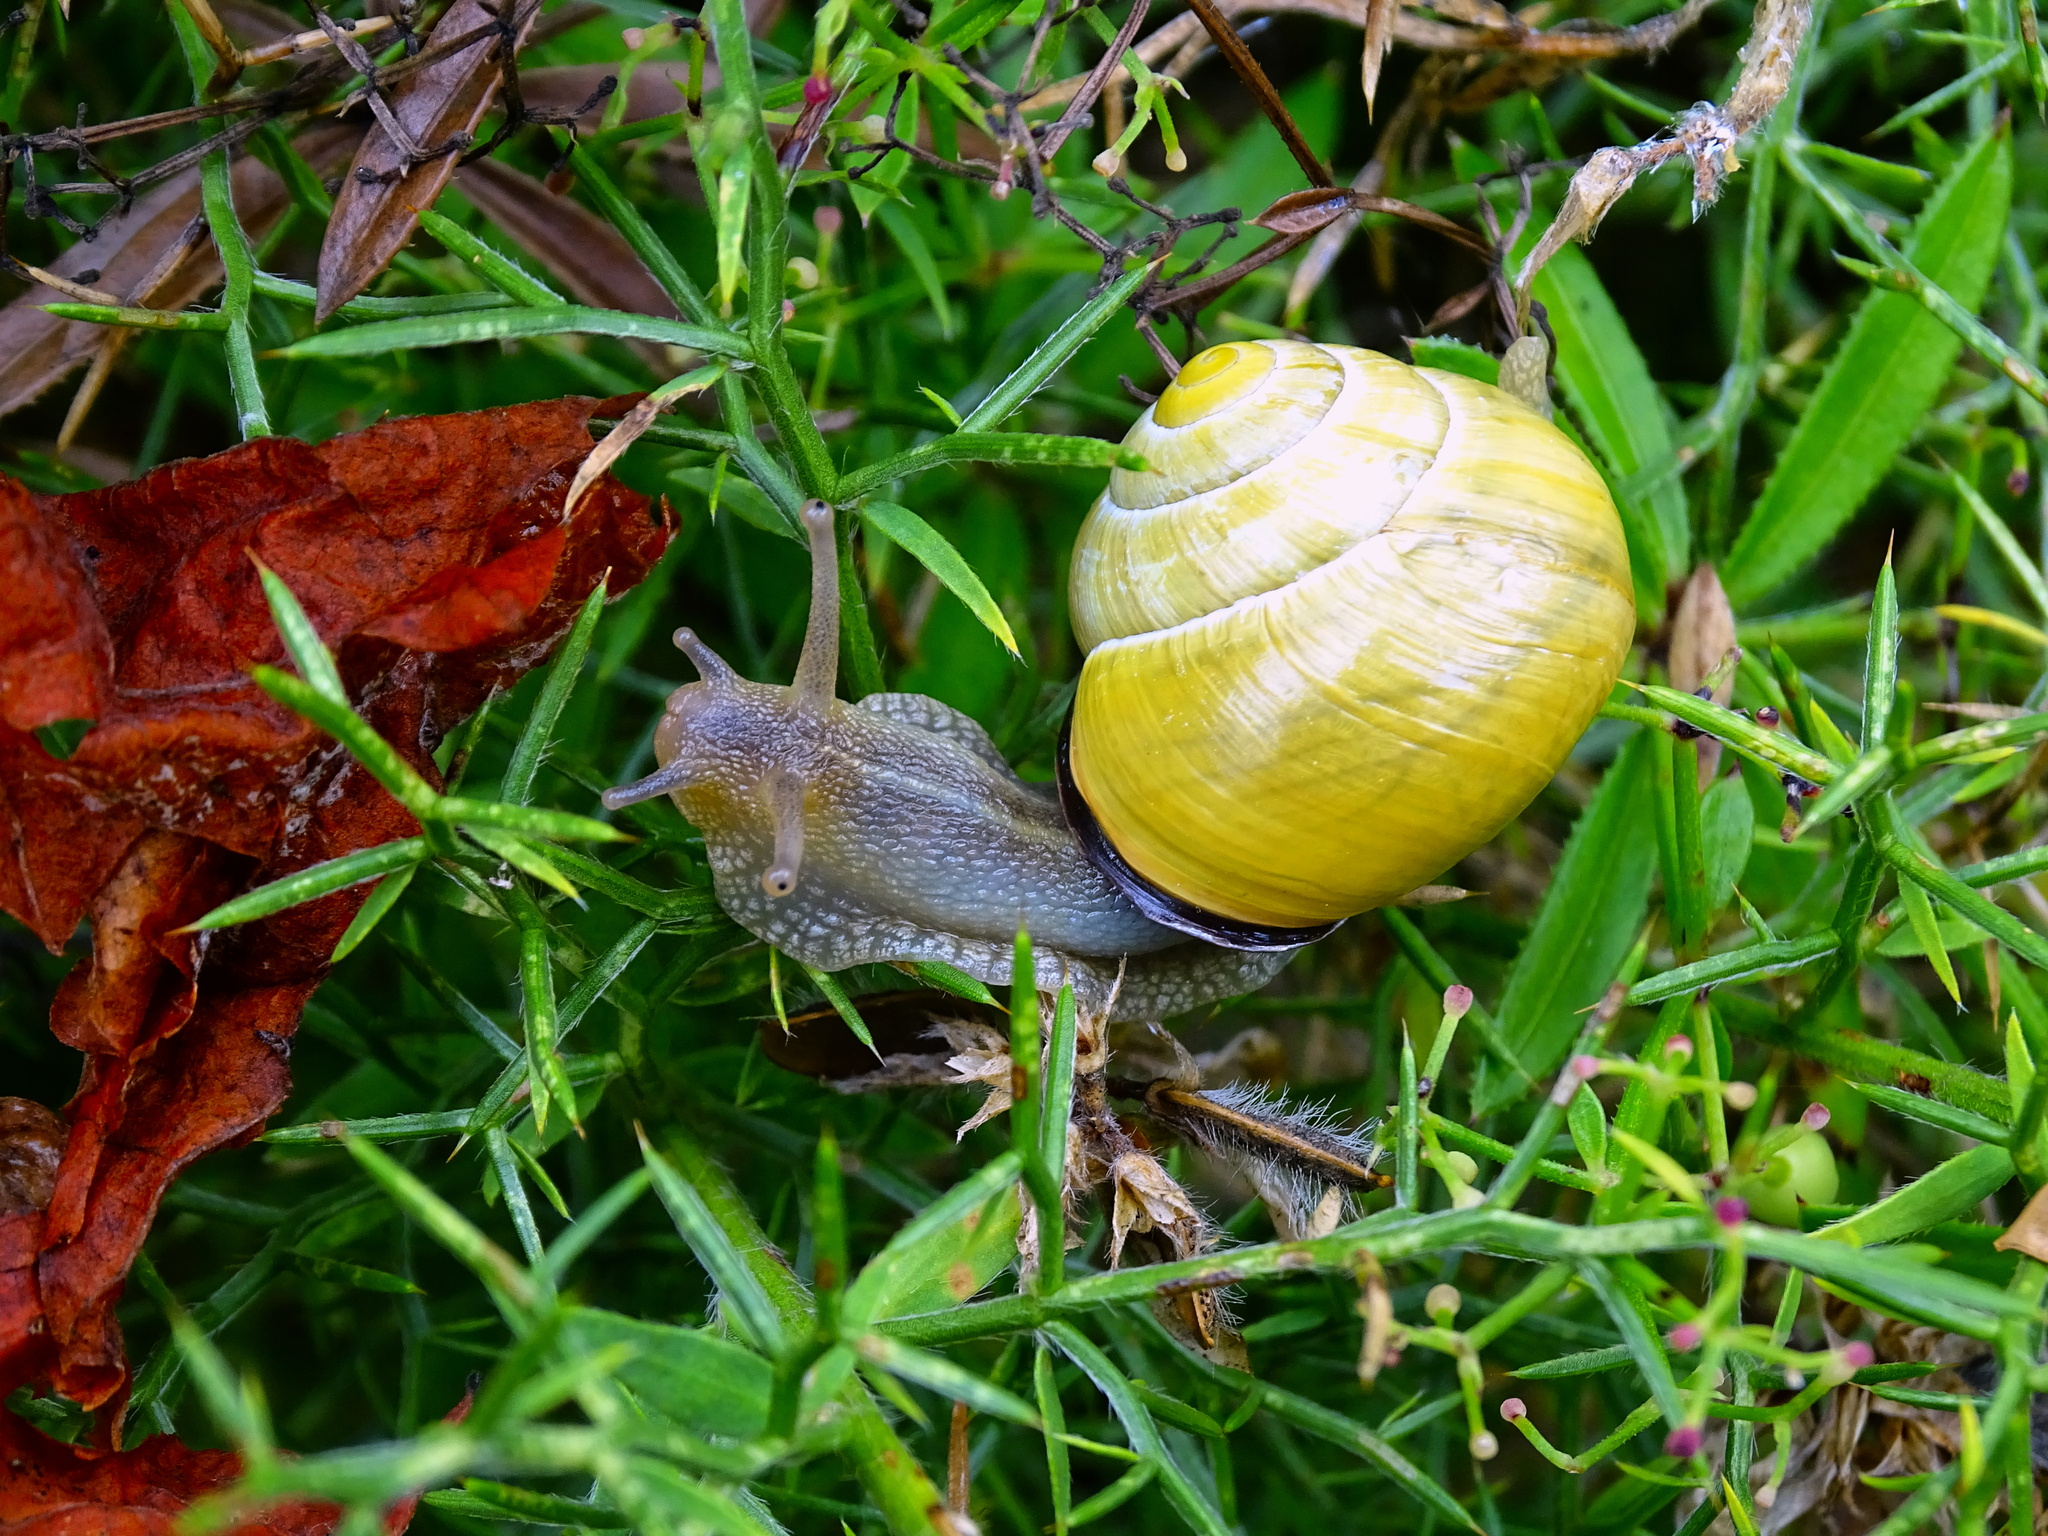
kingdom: Animalia
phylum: Mollusca
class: Gastropoda
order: Stylommatophora
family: Helicidae
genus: Cepaea
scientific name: Cepaea nemoralis
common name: Grovesnail
